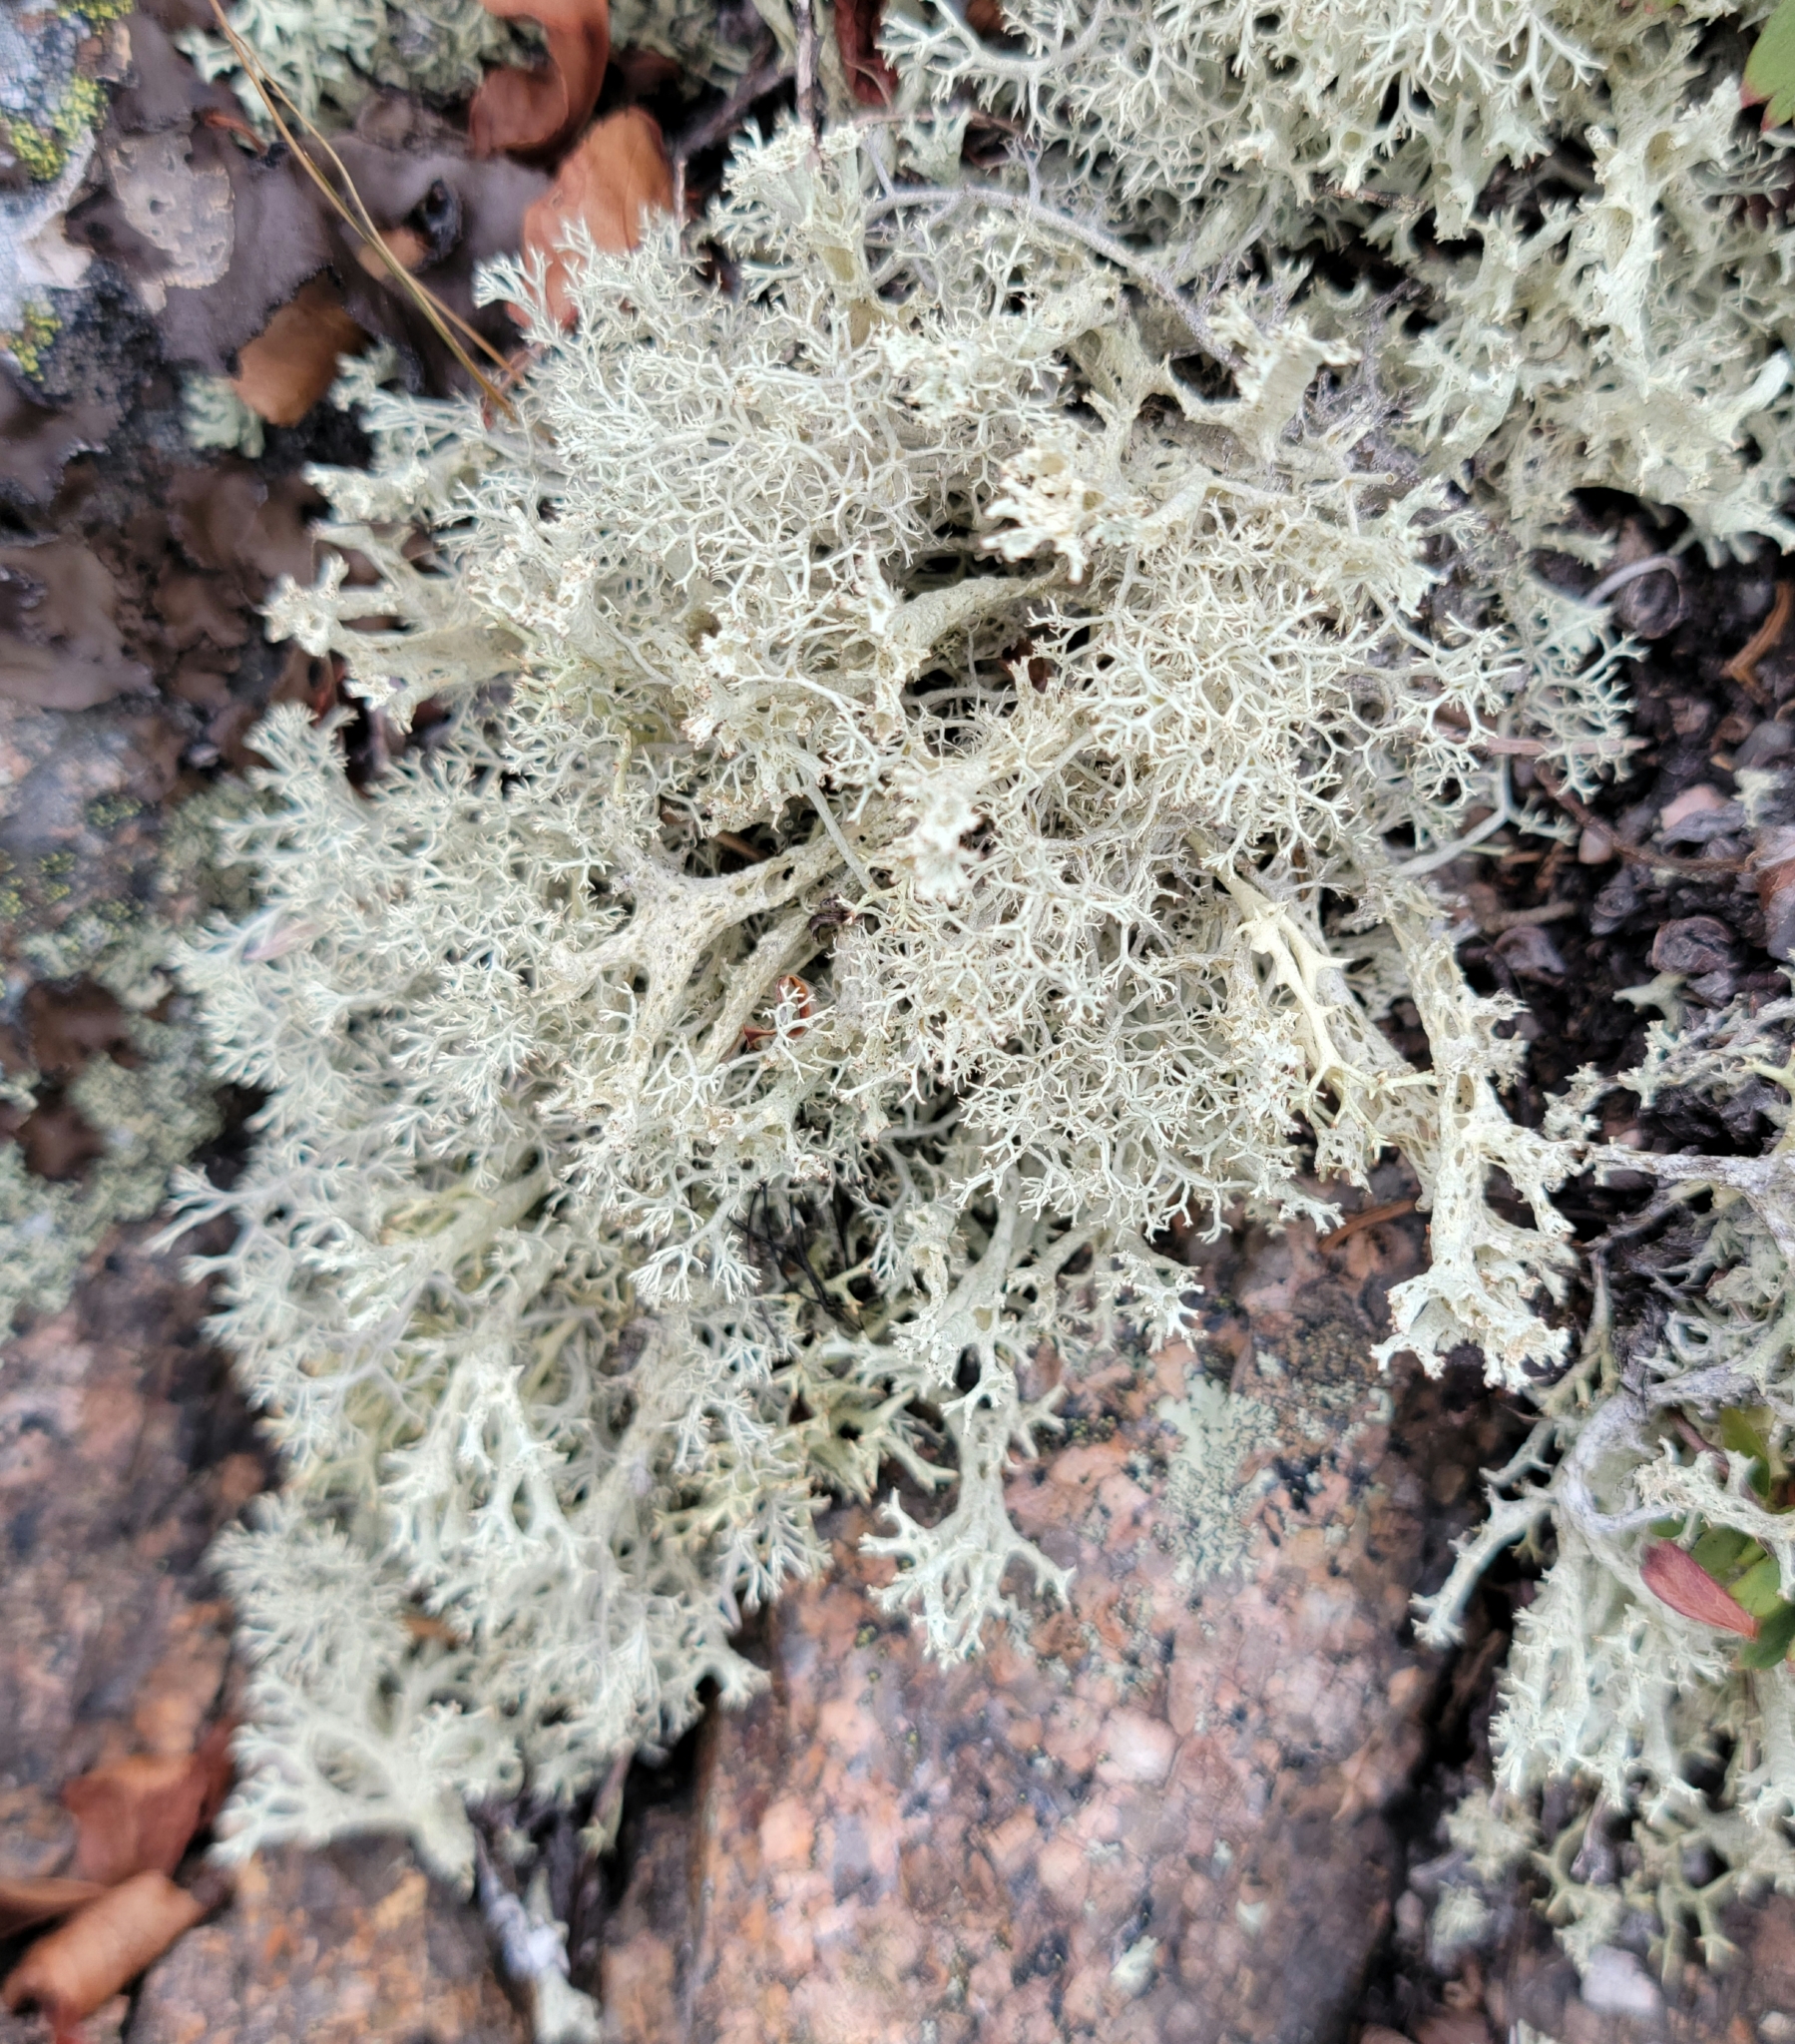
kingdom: Fungi
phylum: Ascomycota
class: Lecanoromycetes
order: Lecanorales
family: Cladoniaceae
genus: Cladonia
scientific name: Cladonia boryi
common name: Fishnet cladonia
